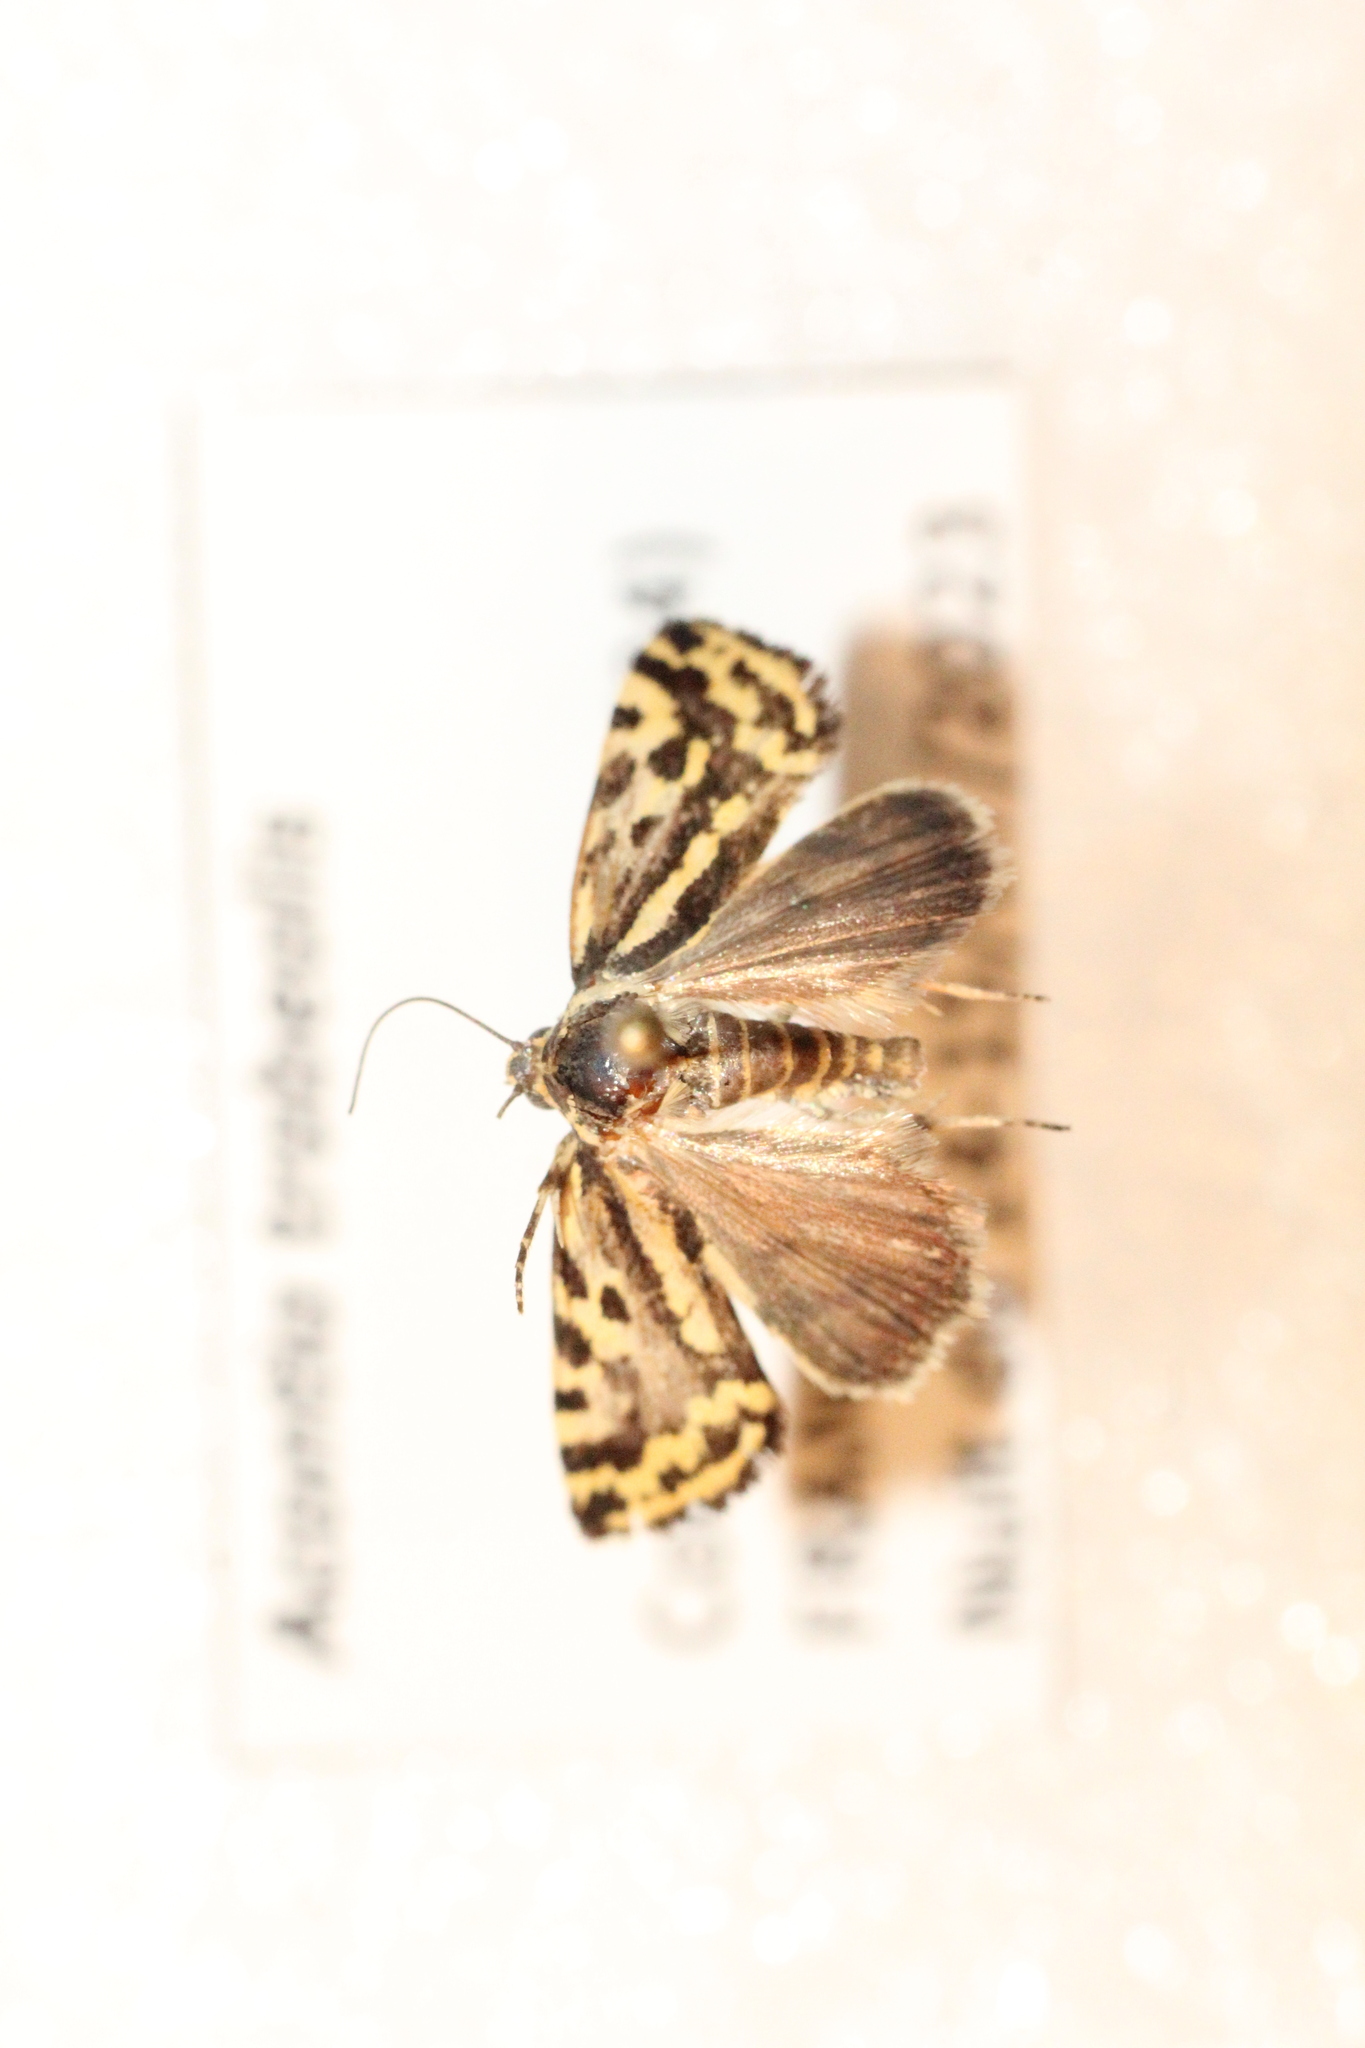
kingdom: Animalia
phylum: Arthropoda
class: Insecta
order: Lepidoptera
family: Noctuidae
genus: Acontia
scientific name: Acontia trabealis
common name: Spotted sulphur
